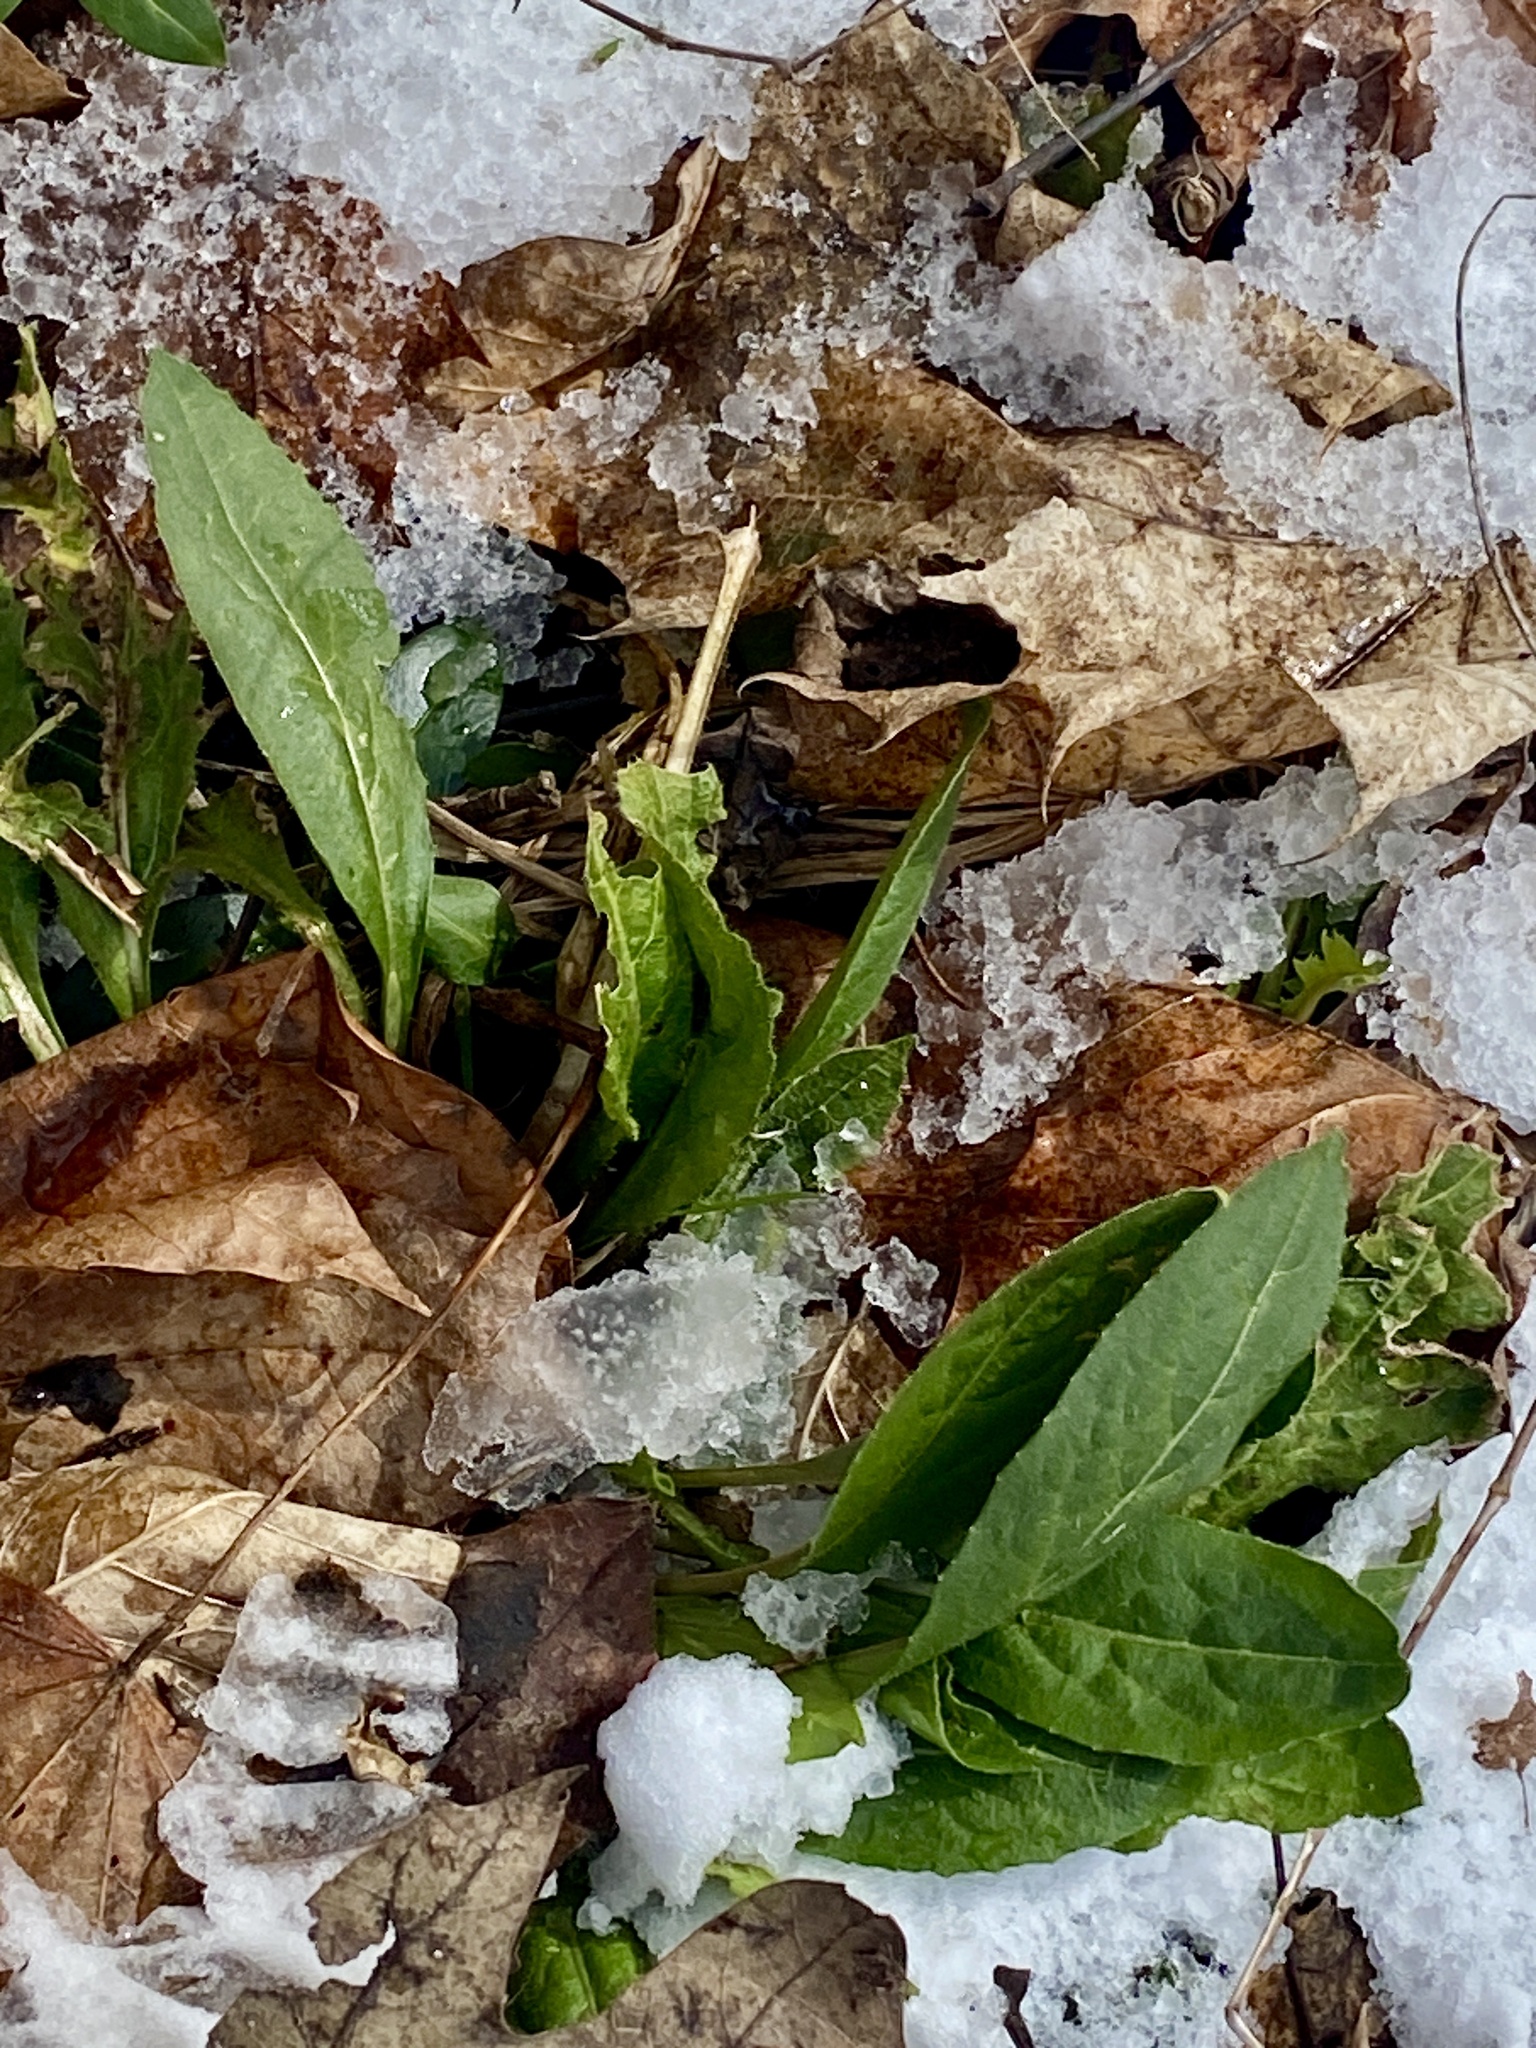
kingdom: Plantae
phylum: Tracheophyta
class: Magnoliopsida
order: Brassicales
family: Brassicaceae
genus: Hesperis
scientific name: Hesperis matronalis
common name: Dame's-violet
